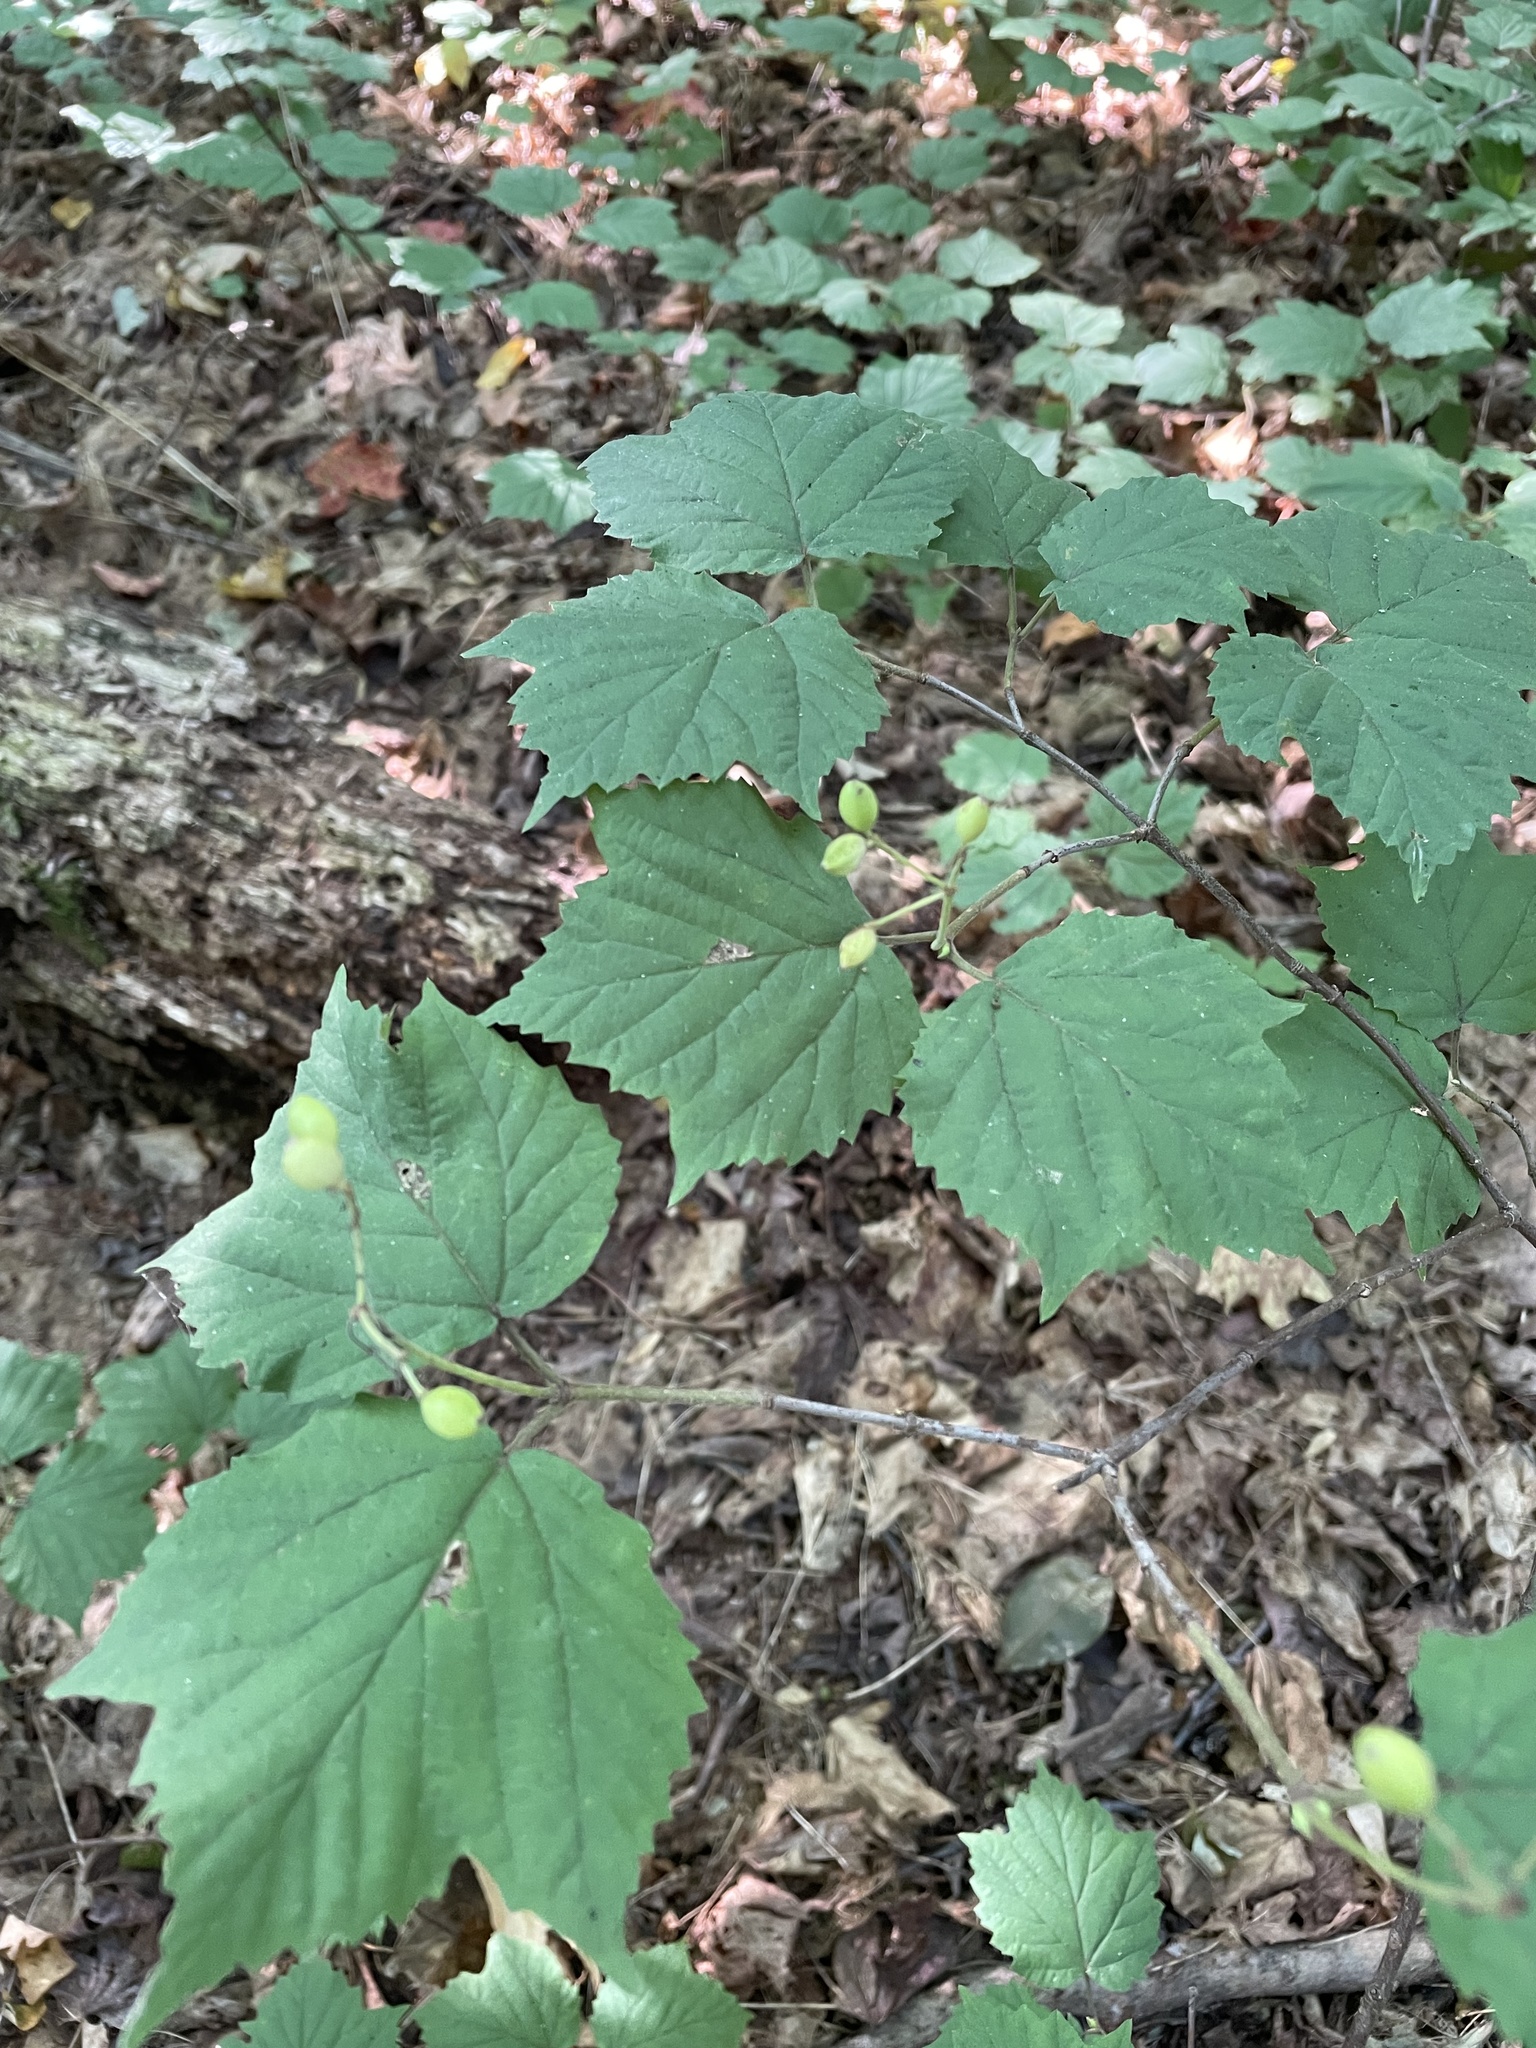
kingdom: Plantae
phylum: Tracheophyta
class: Magnoliopsida
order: Dipsacales
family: Viburnaceae
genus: Viburnum
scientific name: Viburnum acerifolium
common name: Dockmackie
